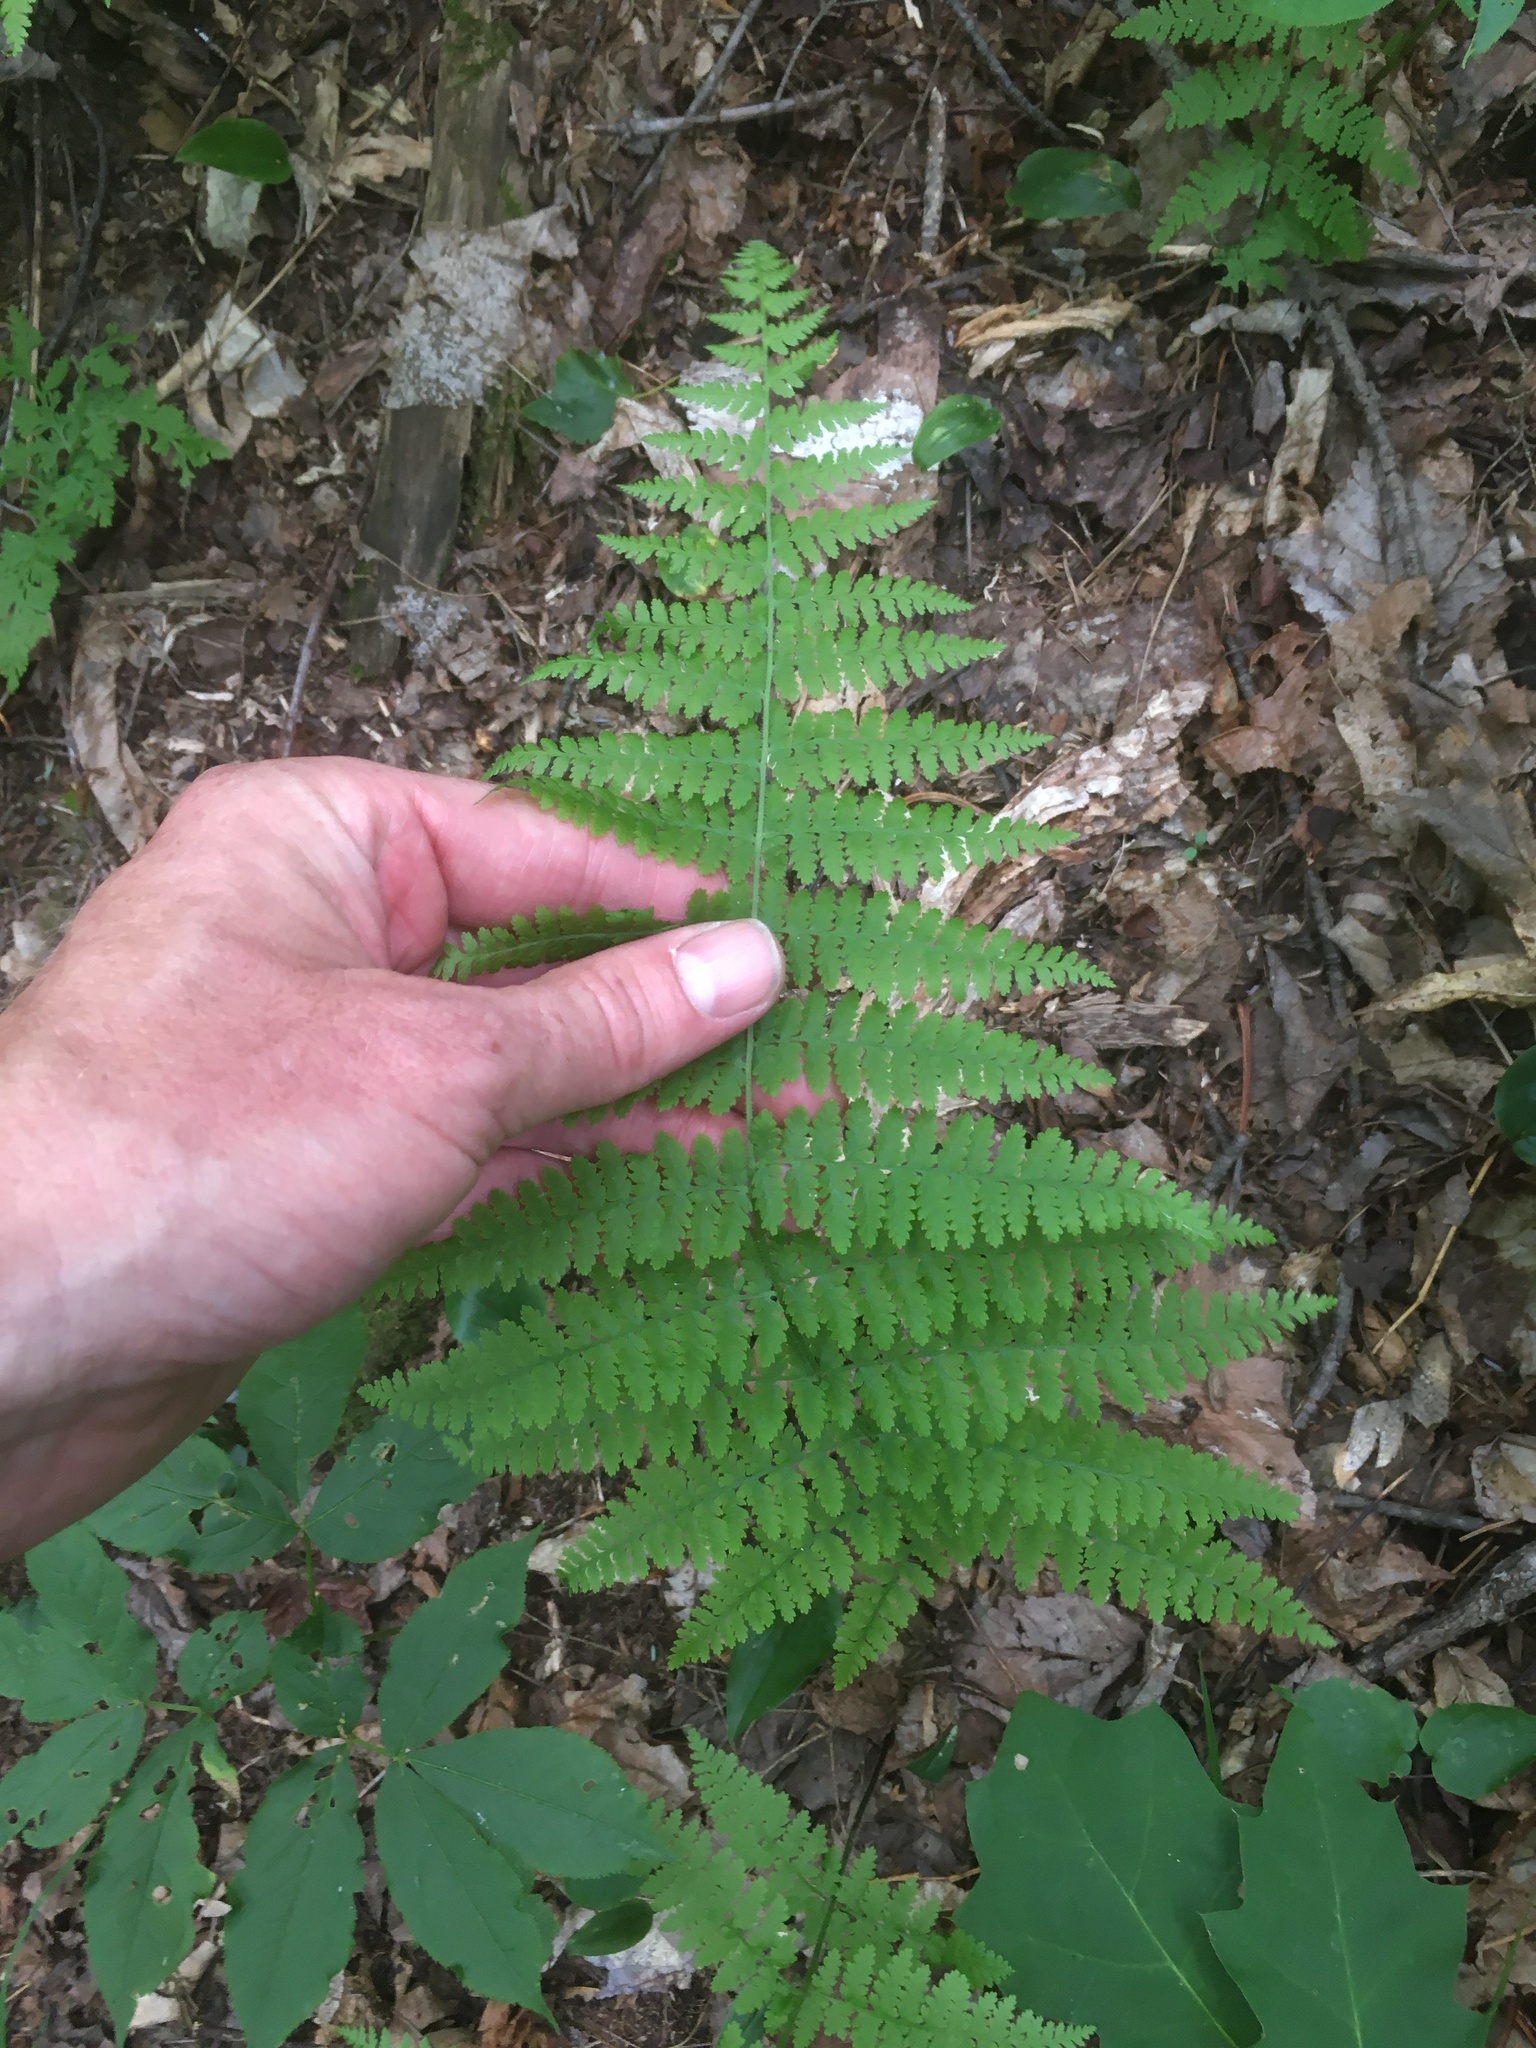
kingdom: Plantae
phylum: Tracheophyta
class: Polypodiopsida
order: Polypodiales
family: Dennstaedtiaceae
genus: Sitobolium
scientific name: Sitobolium punctilobum
